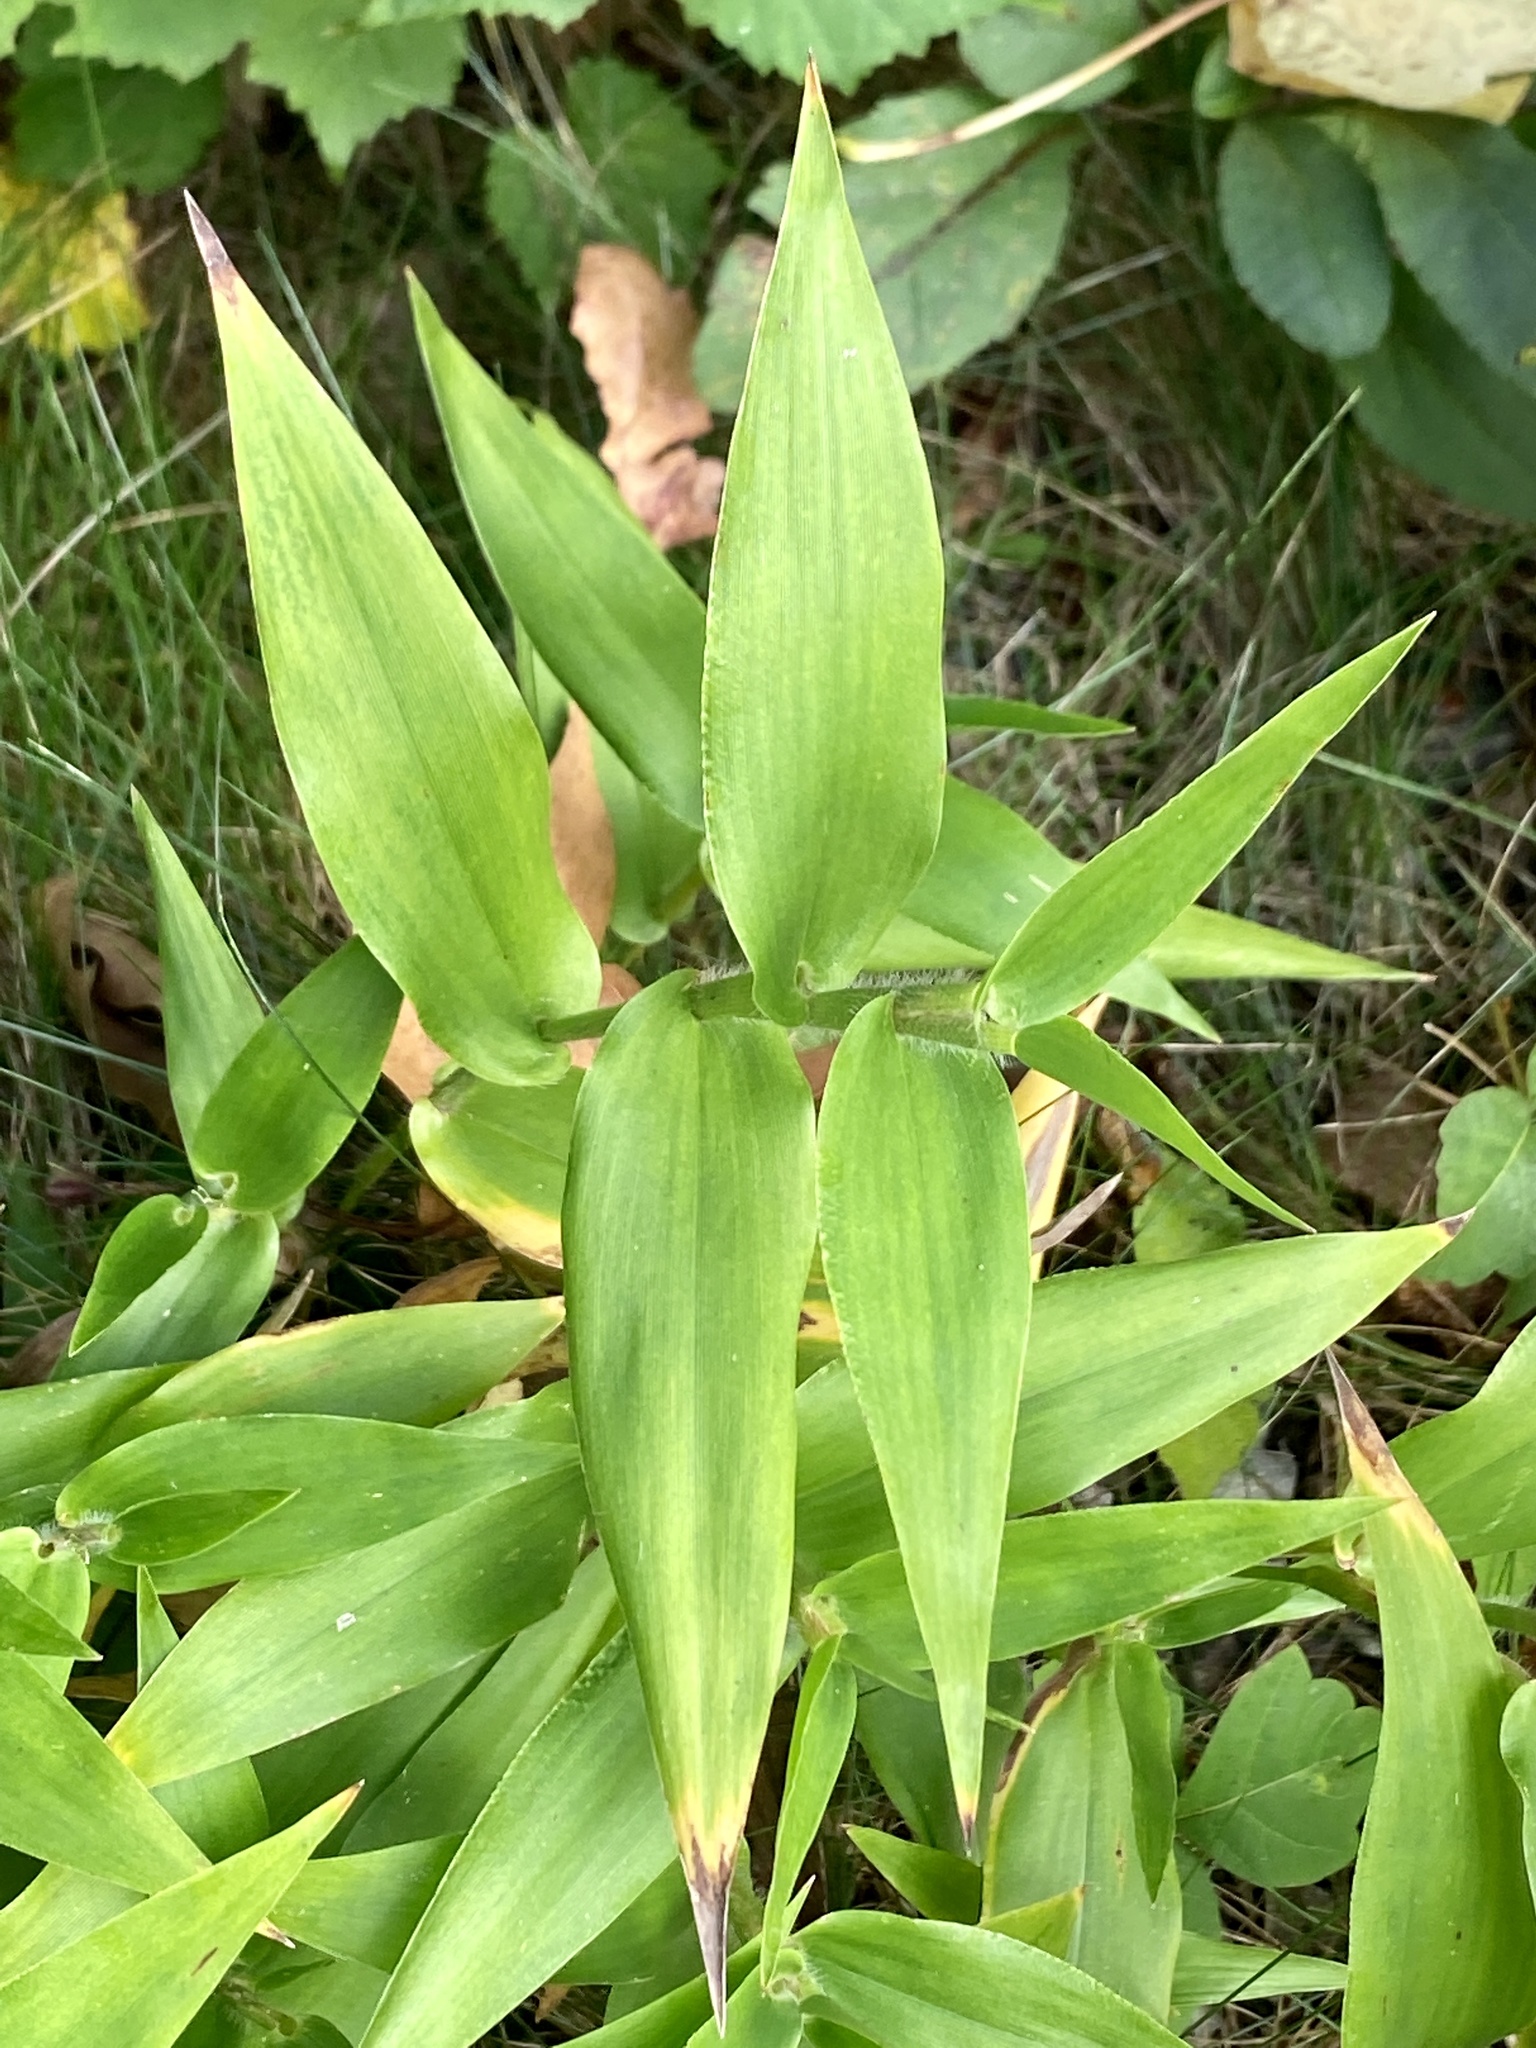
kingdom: Plantae
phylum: Tracheophyta
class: Liliopsida
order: Poales
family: Poaceae
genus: Dichanthelium
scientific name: Dichanthelium clandestinum
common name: Deer-tongue grass
